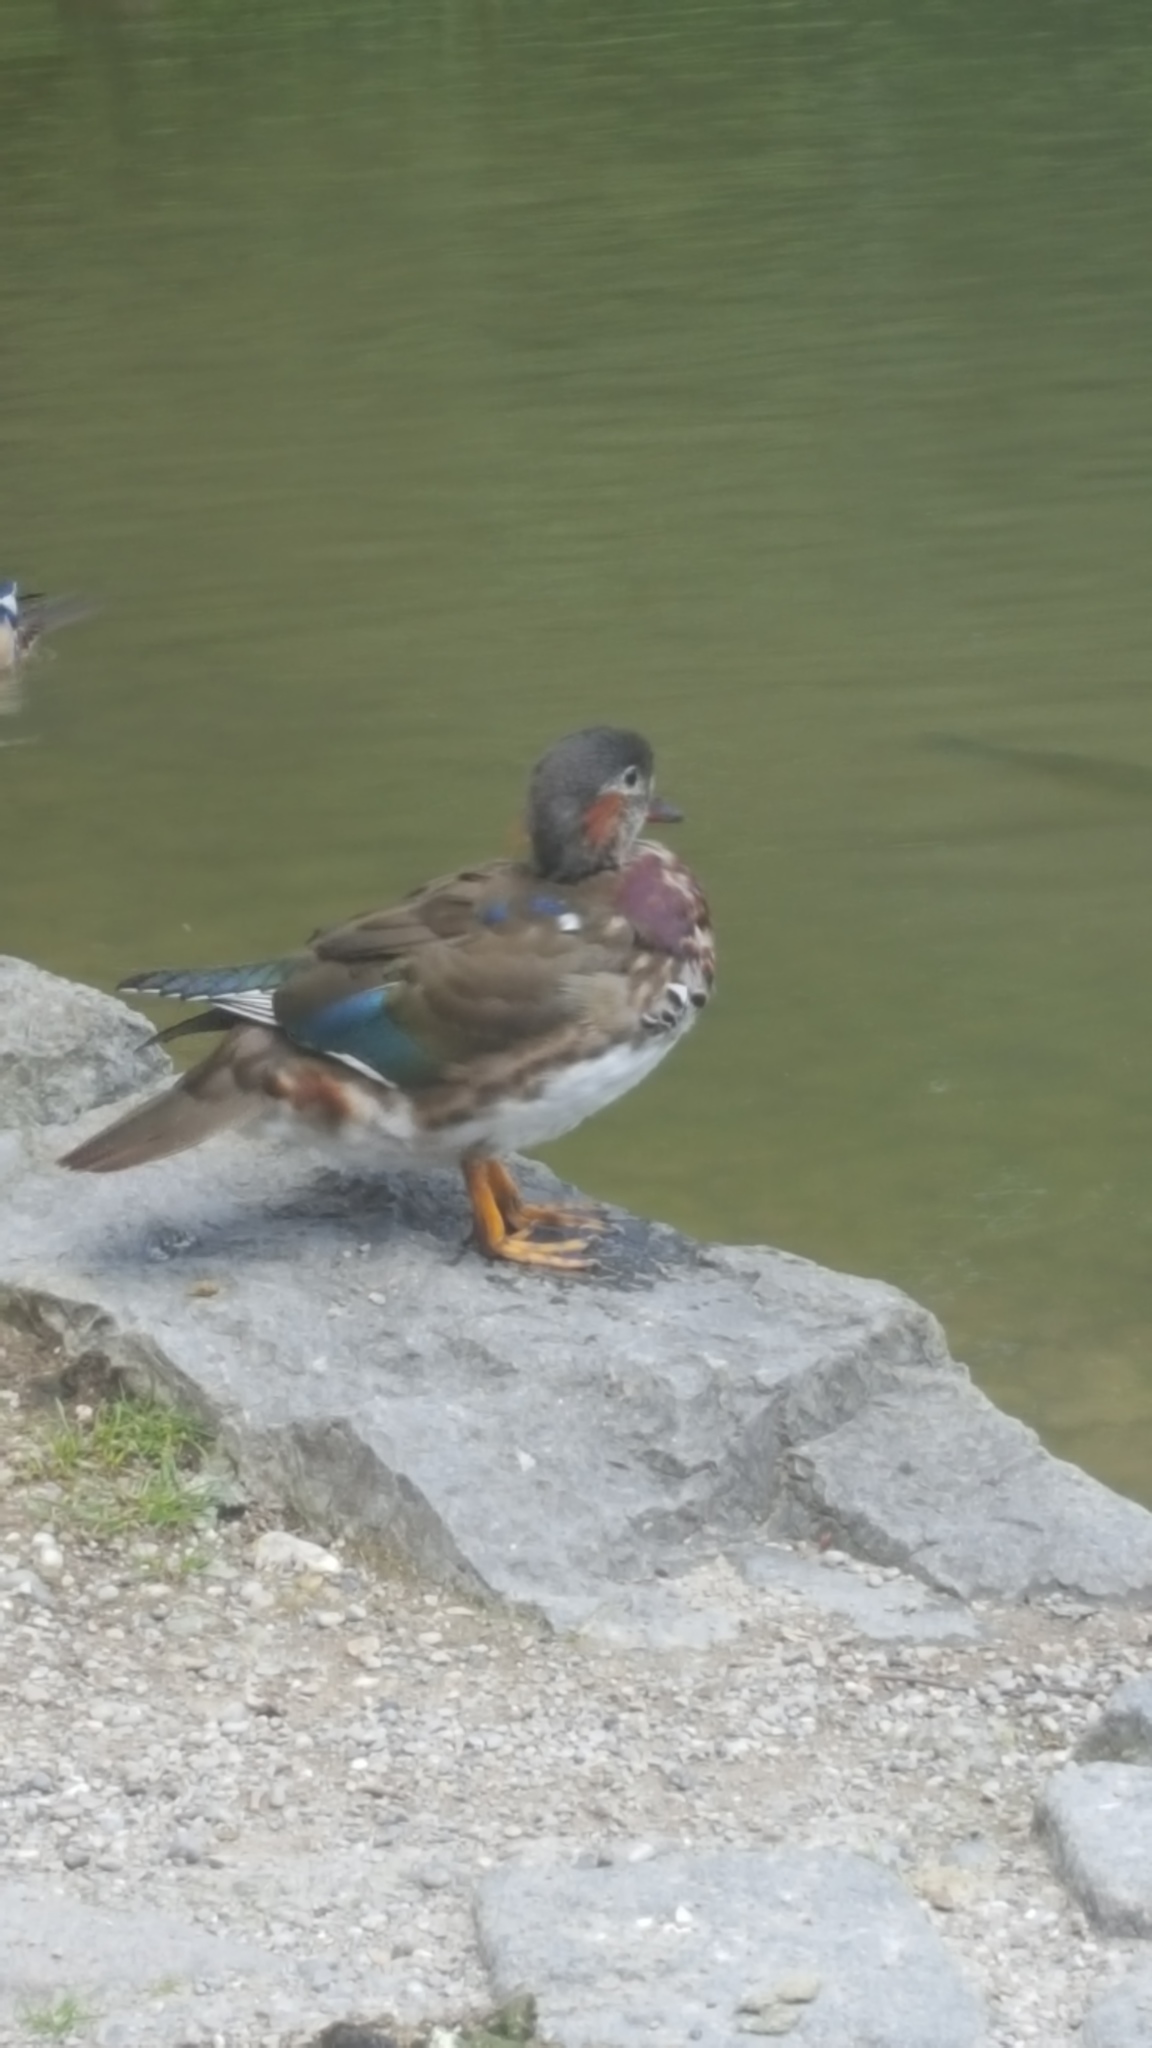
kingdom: Animalia
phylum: Chordata
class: Aves
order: Anseriformes
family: Anatidae
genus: Aix
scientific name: Aix galericulata
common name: Mandarin duck
